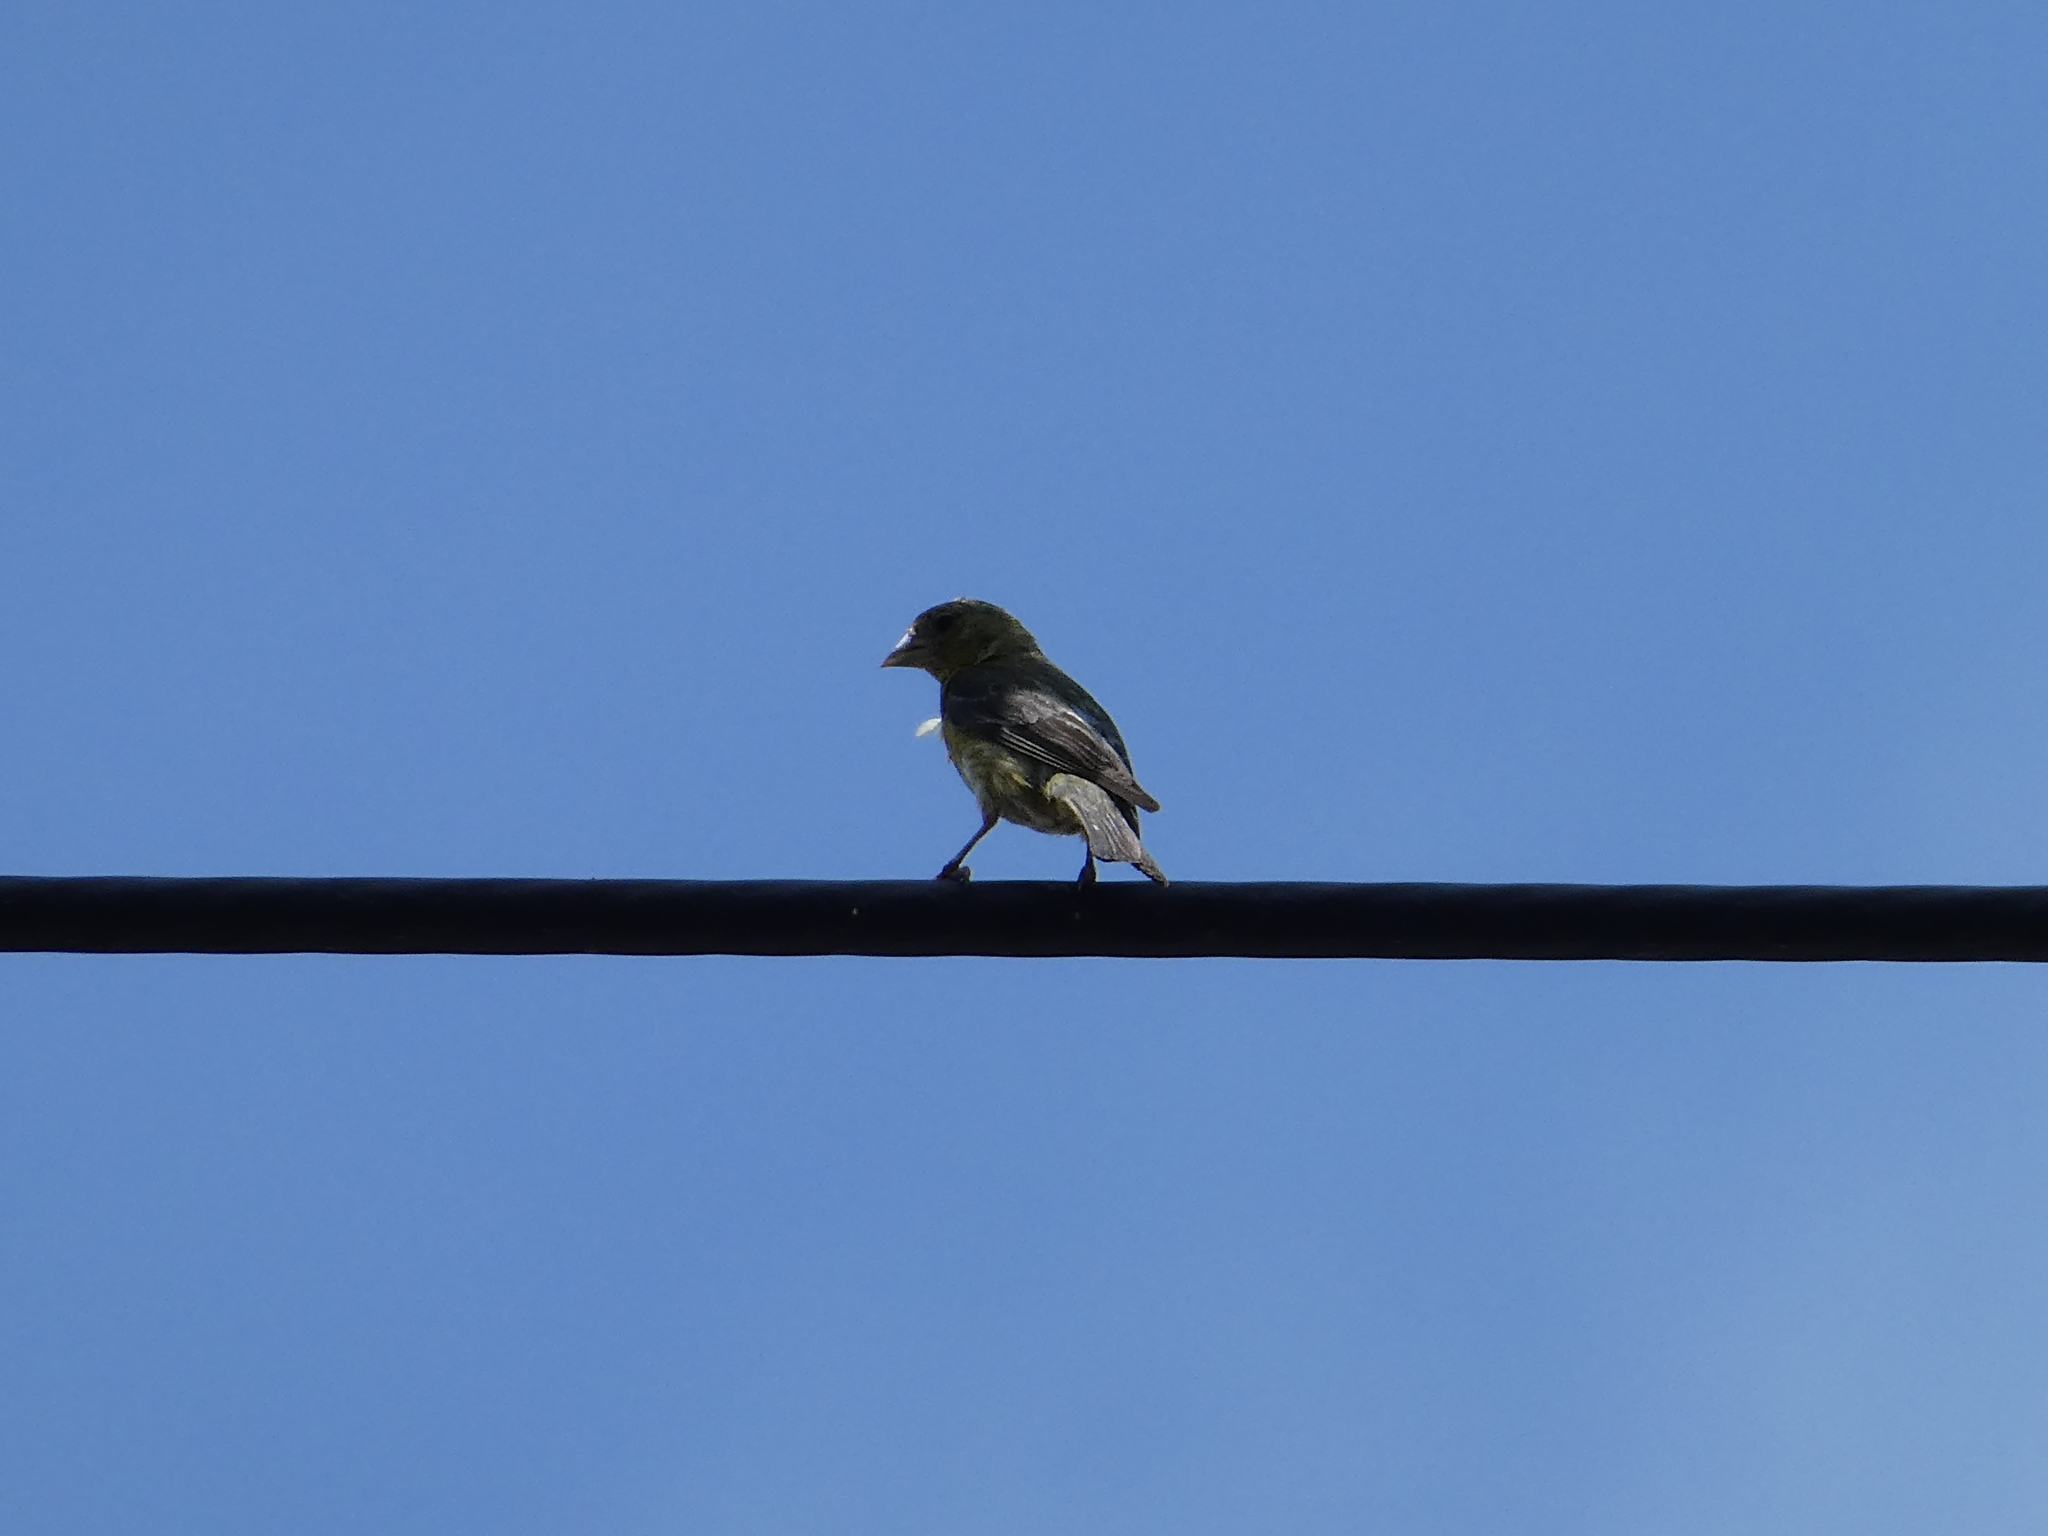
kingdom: Animalia
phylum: Chordata
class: Aves
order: Passeriformes
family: Fringillidae
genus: Spinus
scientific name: Spinus psaltria
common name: Lesser goldfinch
